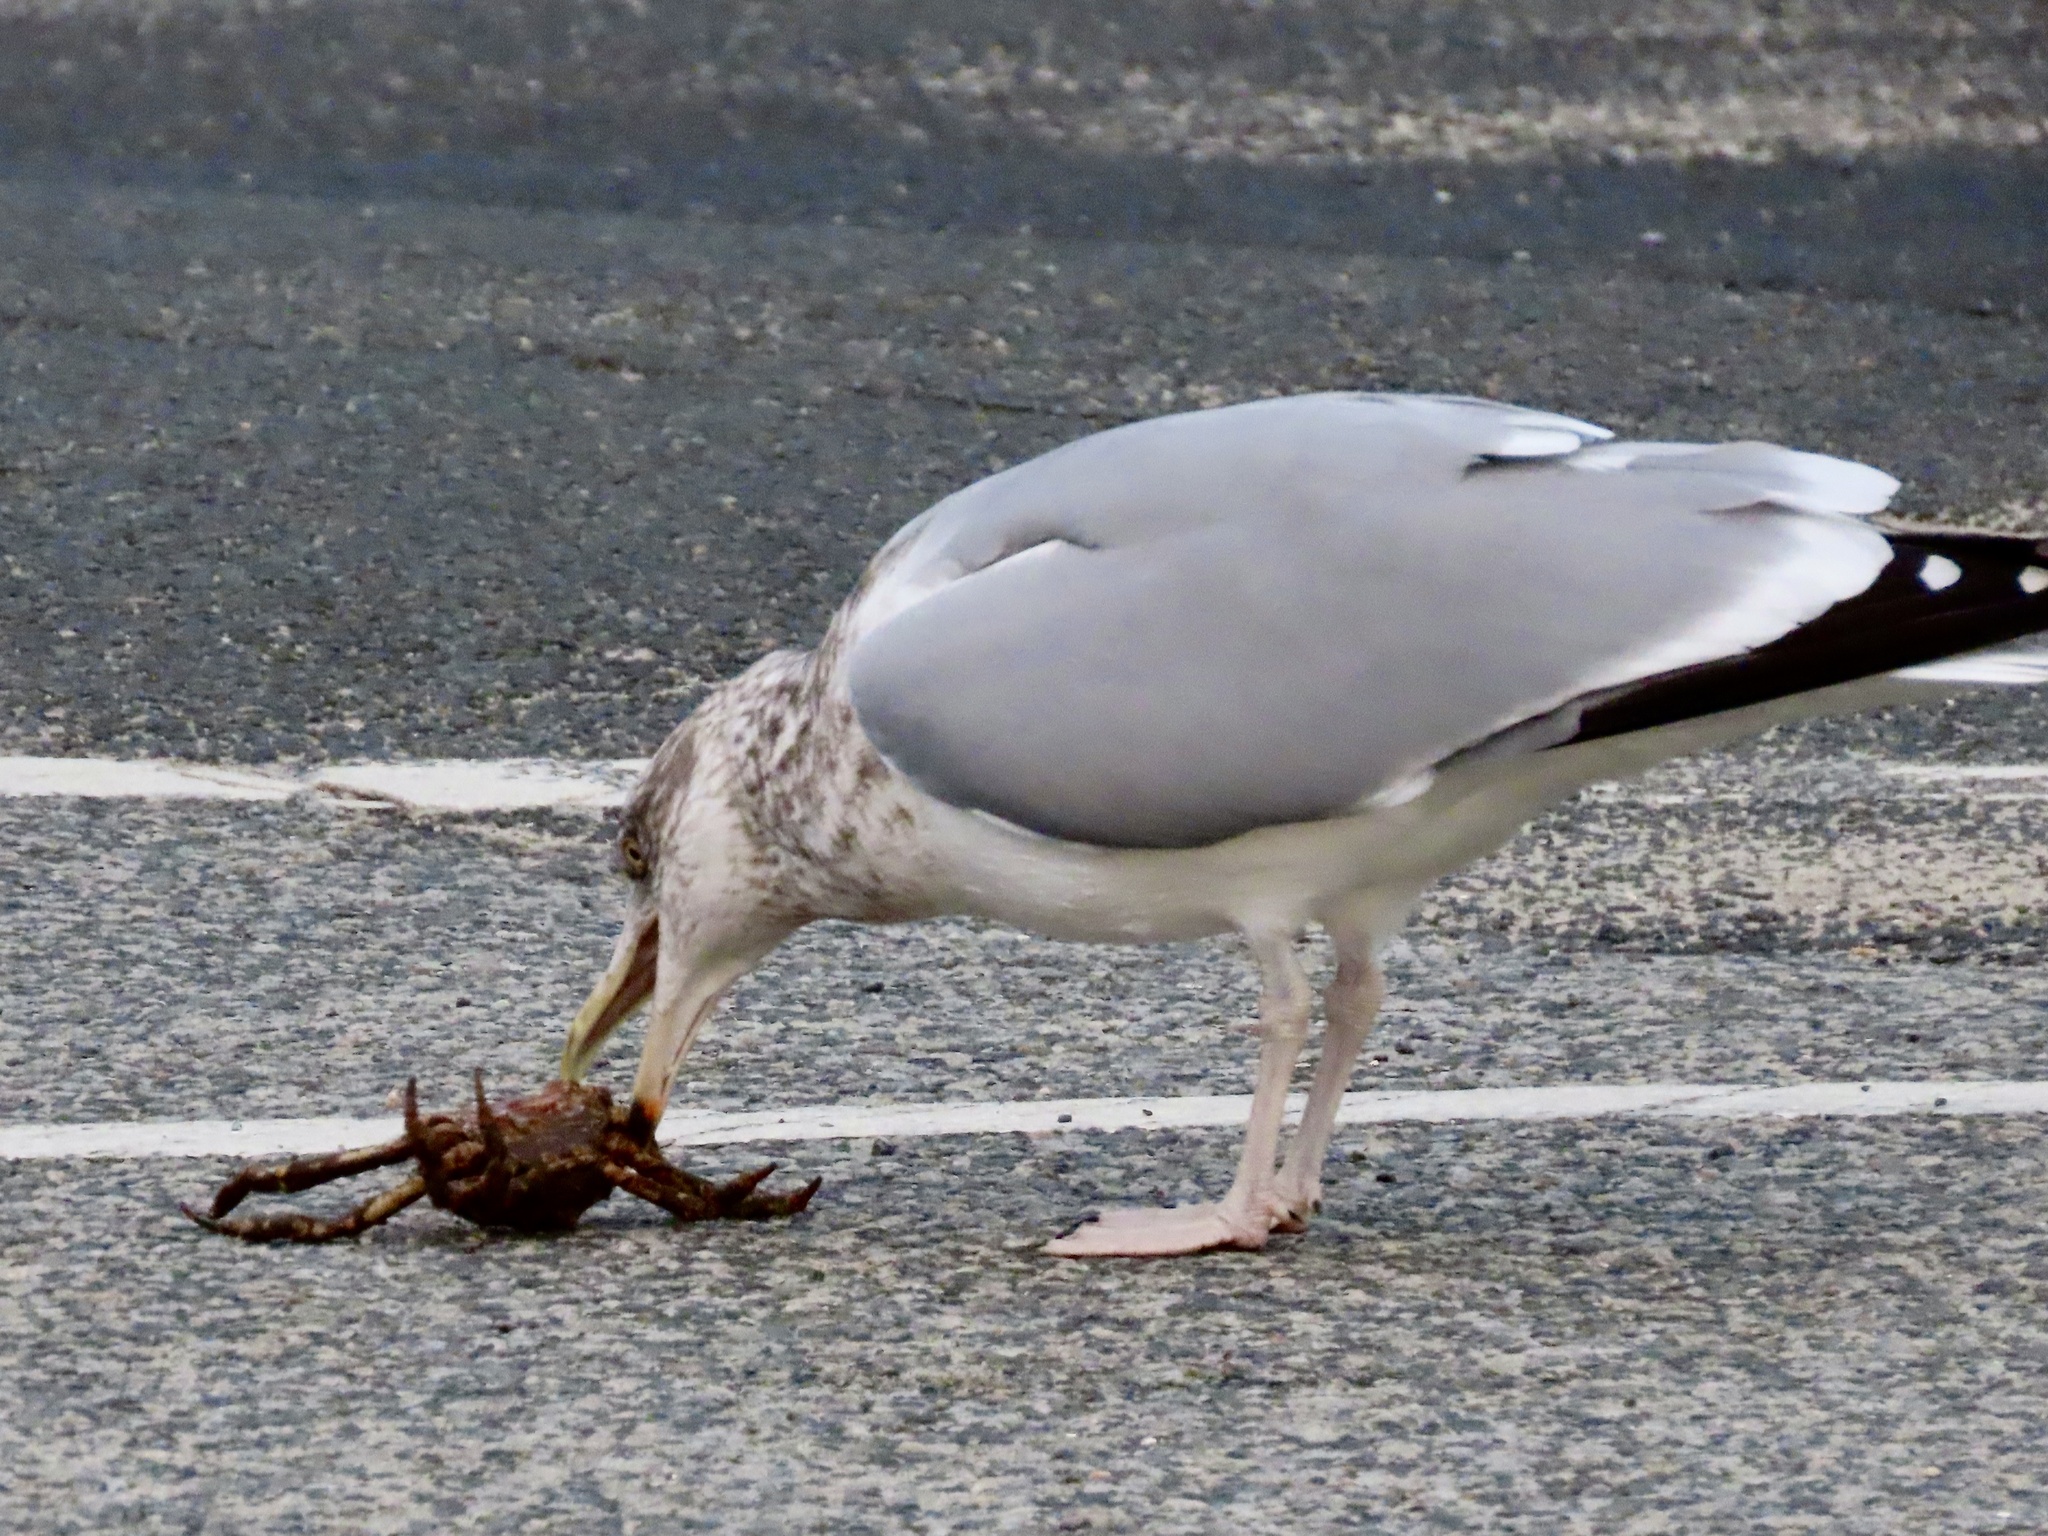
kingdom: Animalia
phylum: Chordata
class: Aves
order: Charadriiformes
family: Laridae
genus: Larus
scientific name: Larus argentatus
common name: Herring gull
